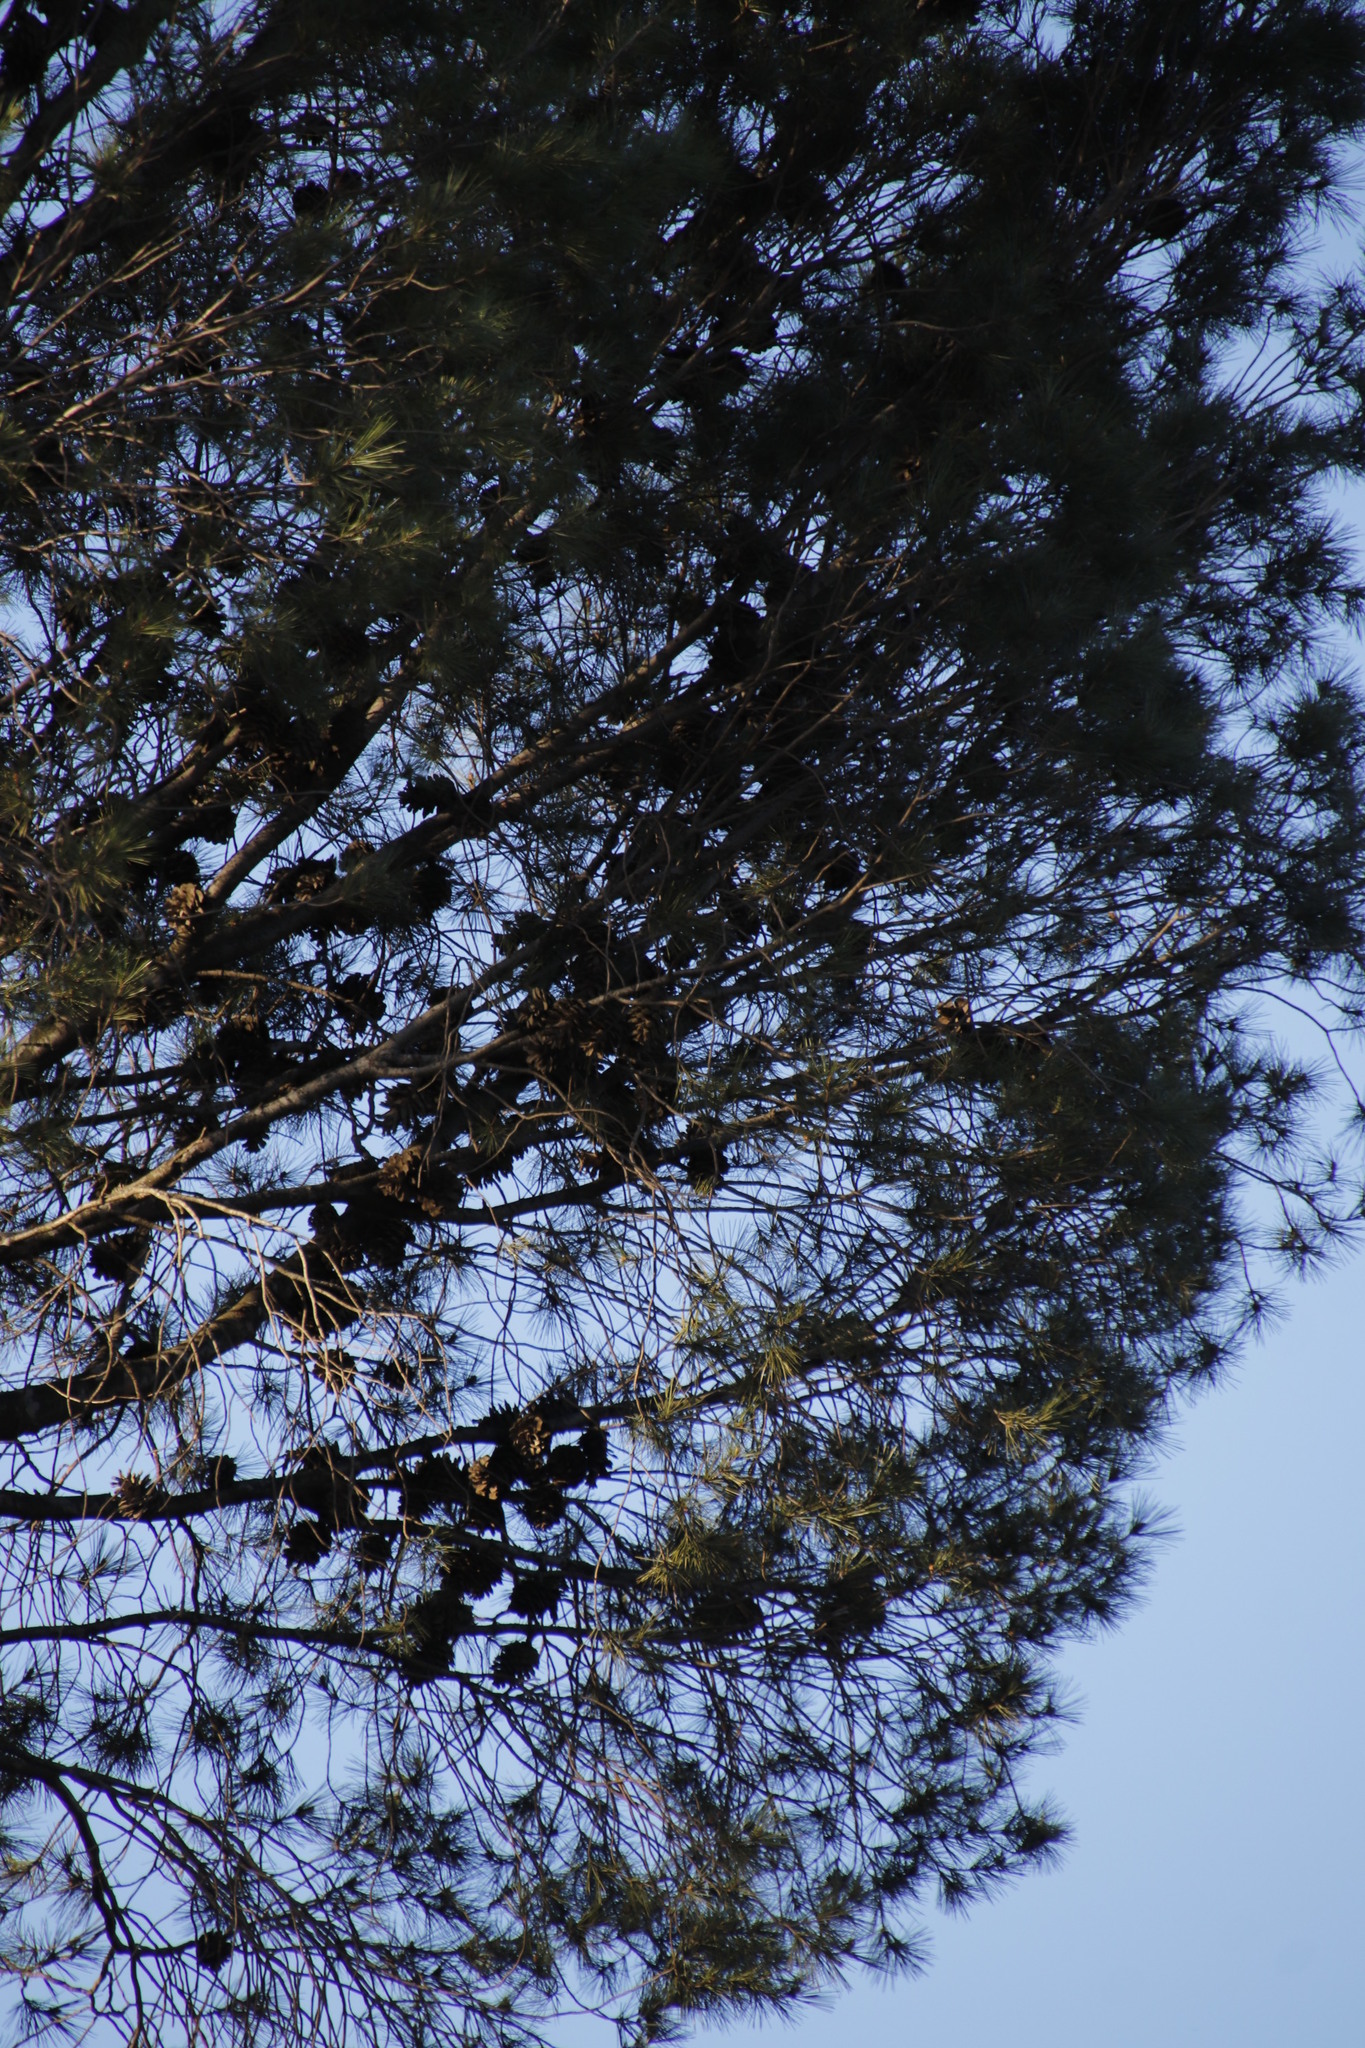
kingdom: Plantae
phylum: Tracheophyta
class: Pinopsida
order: Pinales
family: Pinaceae
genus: Pinus
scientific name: Pinus halepensis
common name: Aleppo pine
